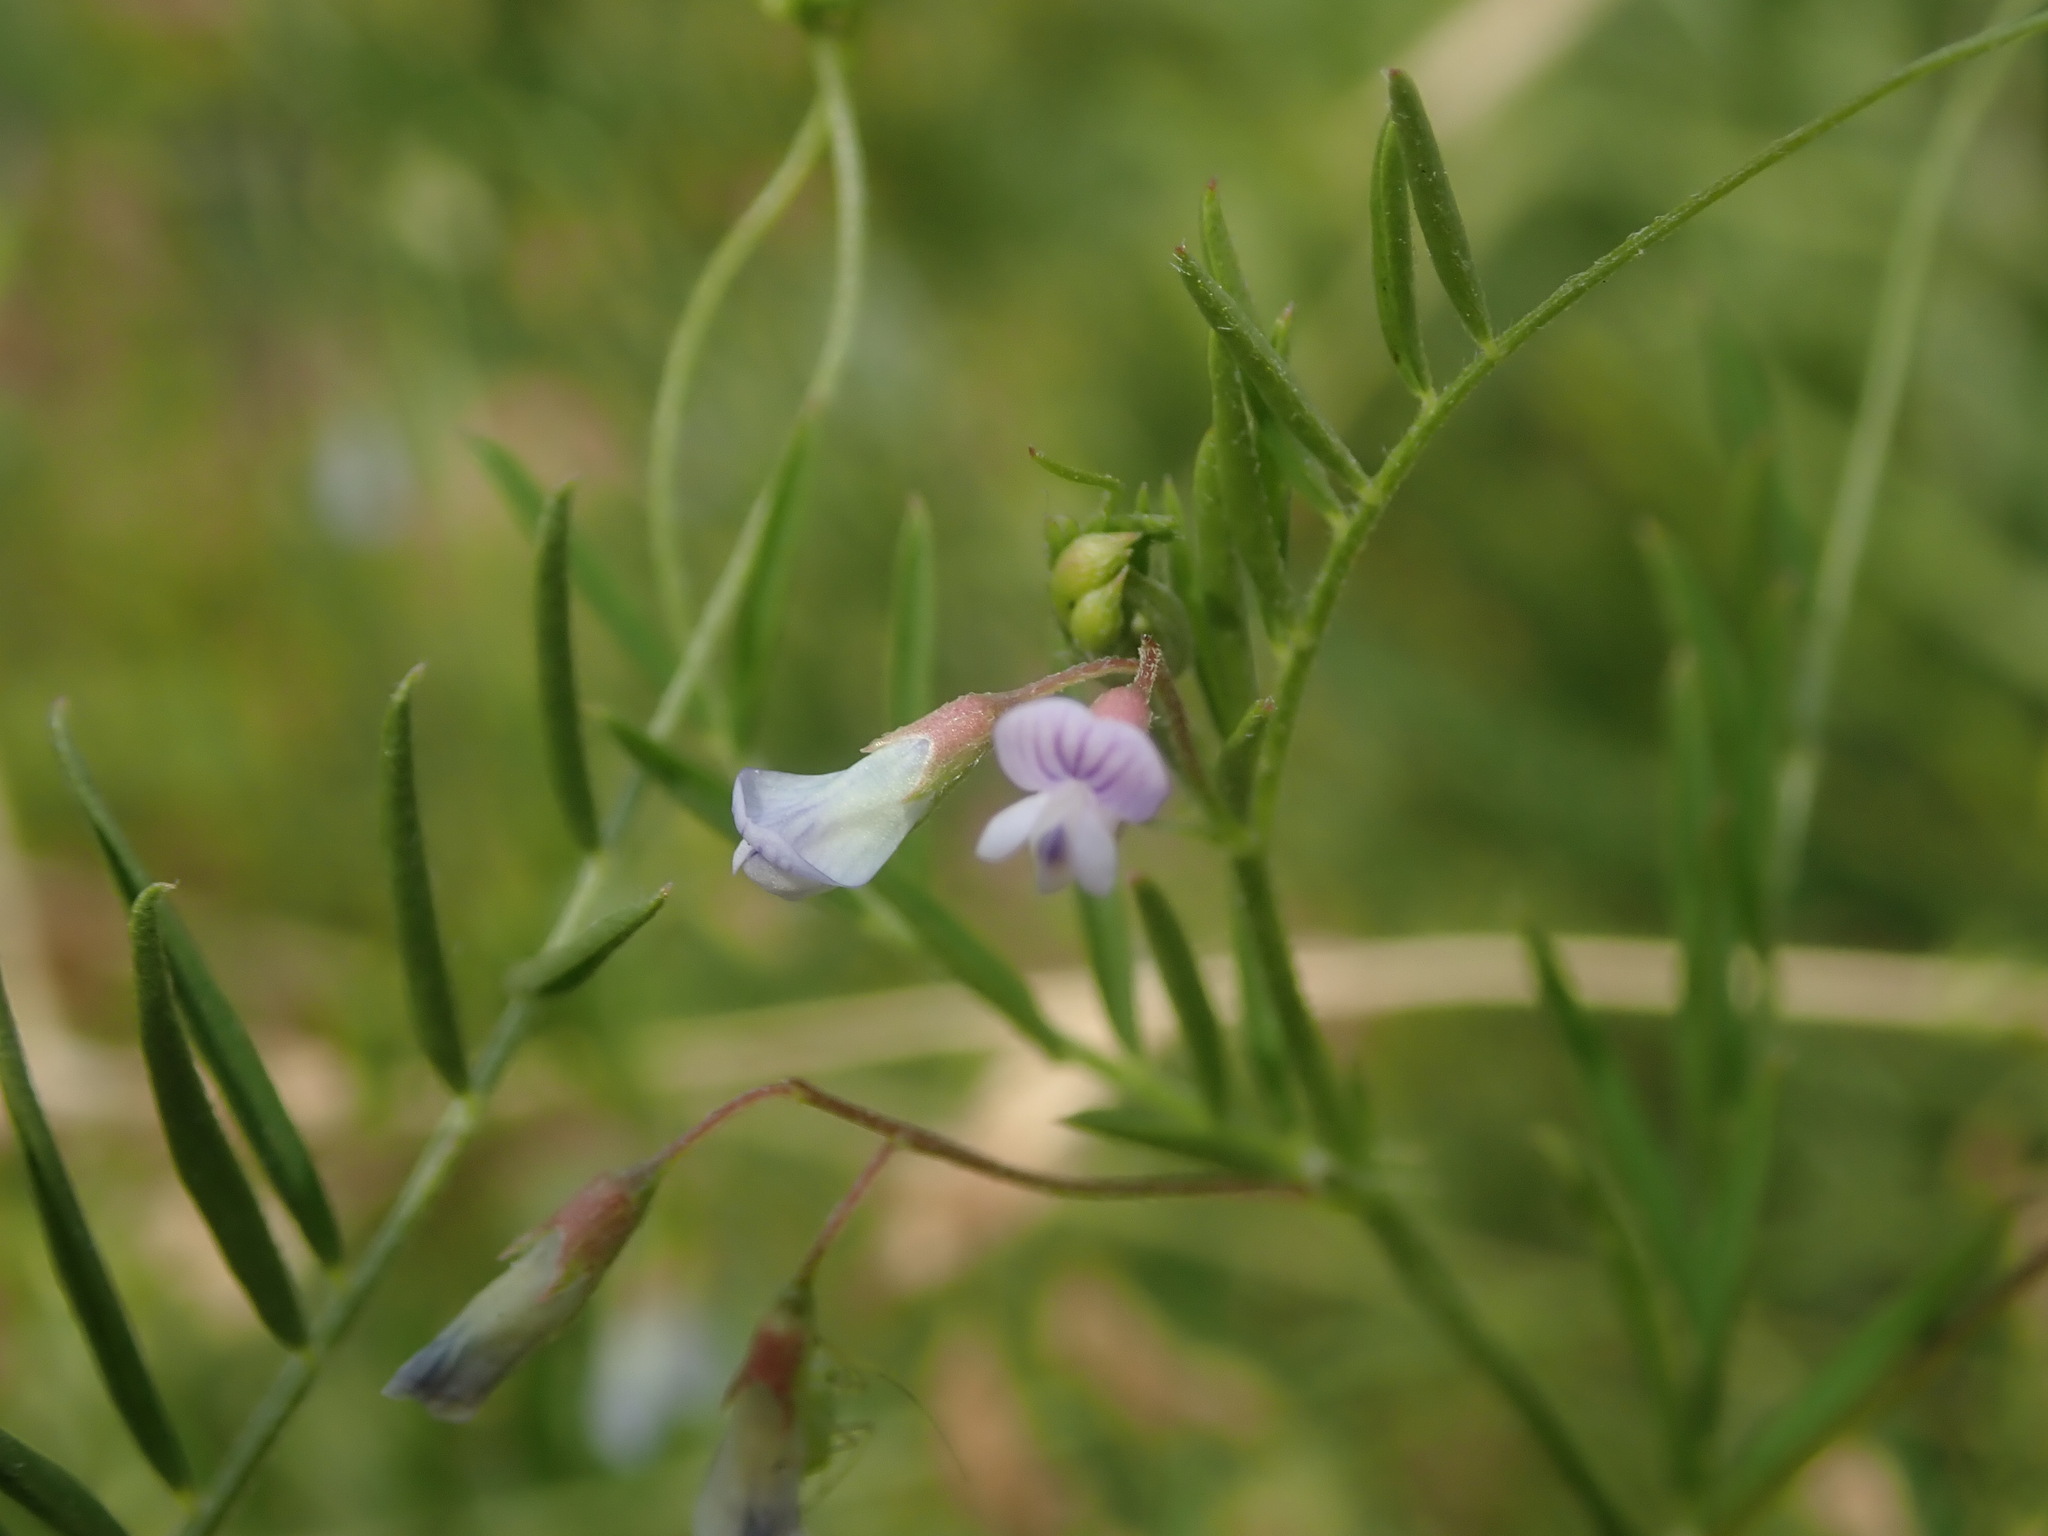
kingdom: Plantae
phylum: Tracheophyta
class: Magnoliopsida
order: Fabales
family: Fabaceae
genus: Vicia
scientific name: Vicia tetrasperma
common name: Smooth tare
